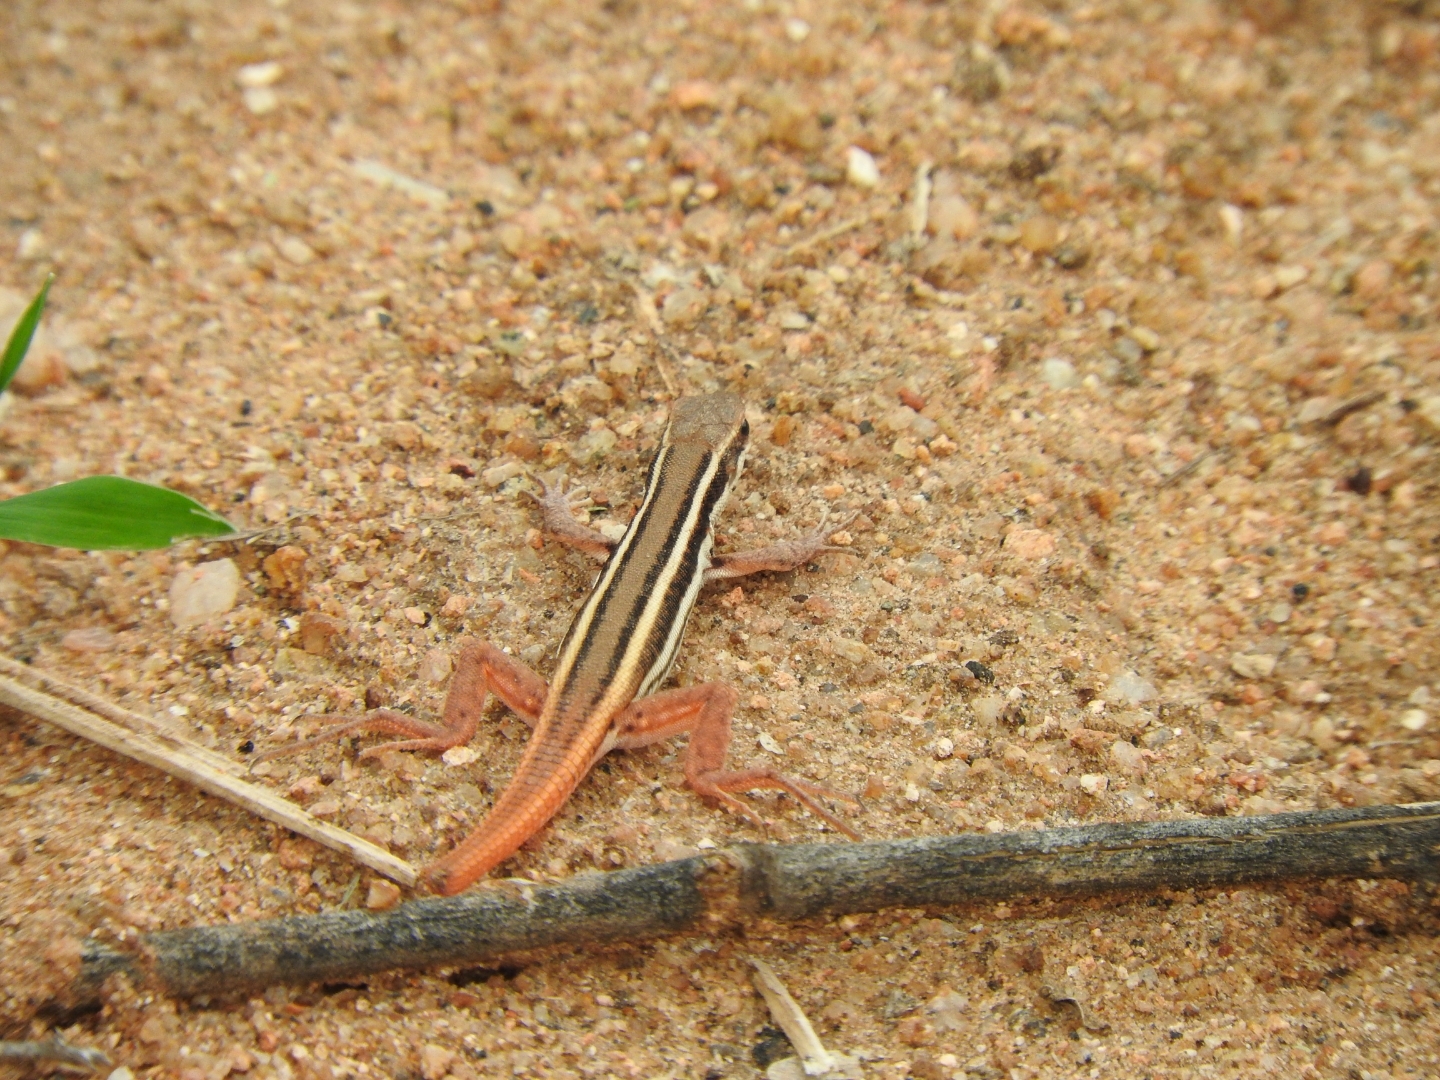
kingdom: Animalia
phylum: Chordata
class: Squamata
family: Lacertidae
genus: Ophisops
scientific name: Ophisops leschenaultii
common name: Leschenault's cabrita
